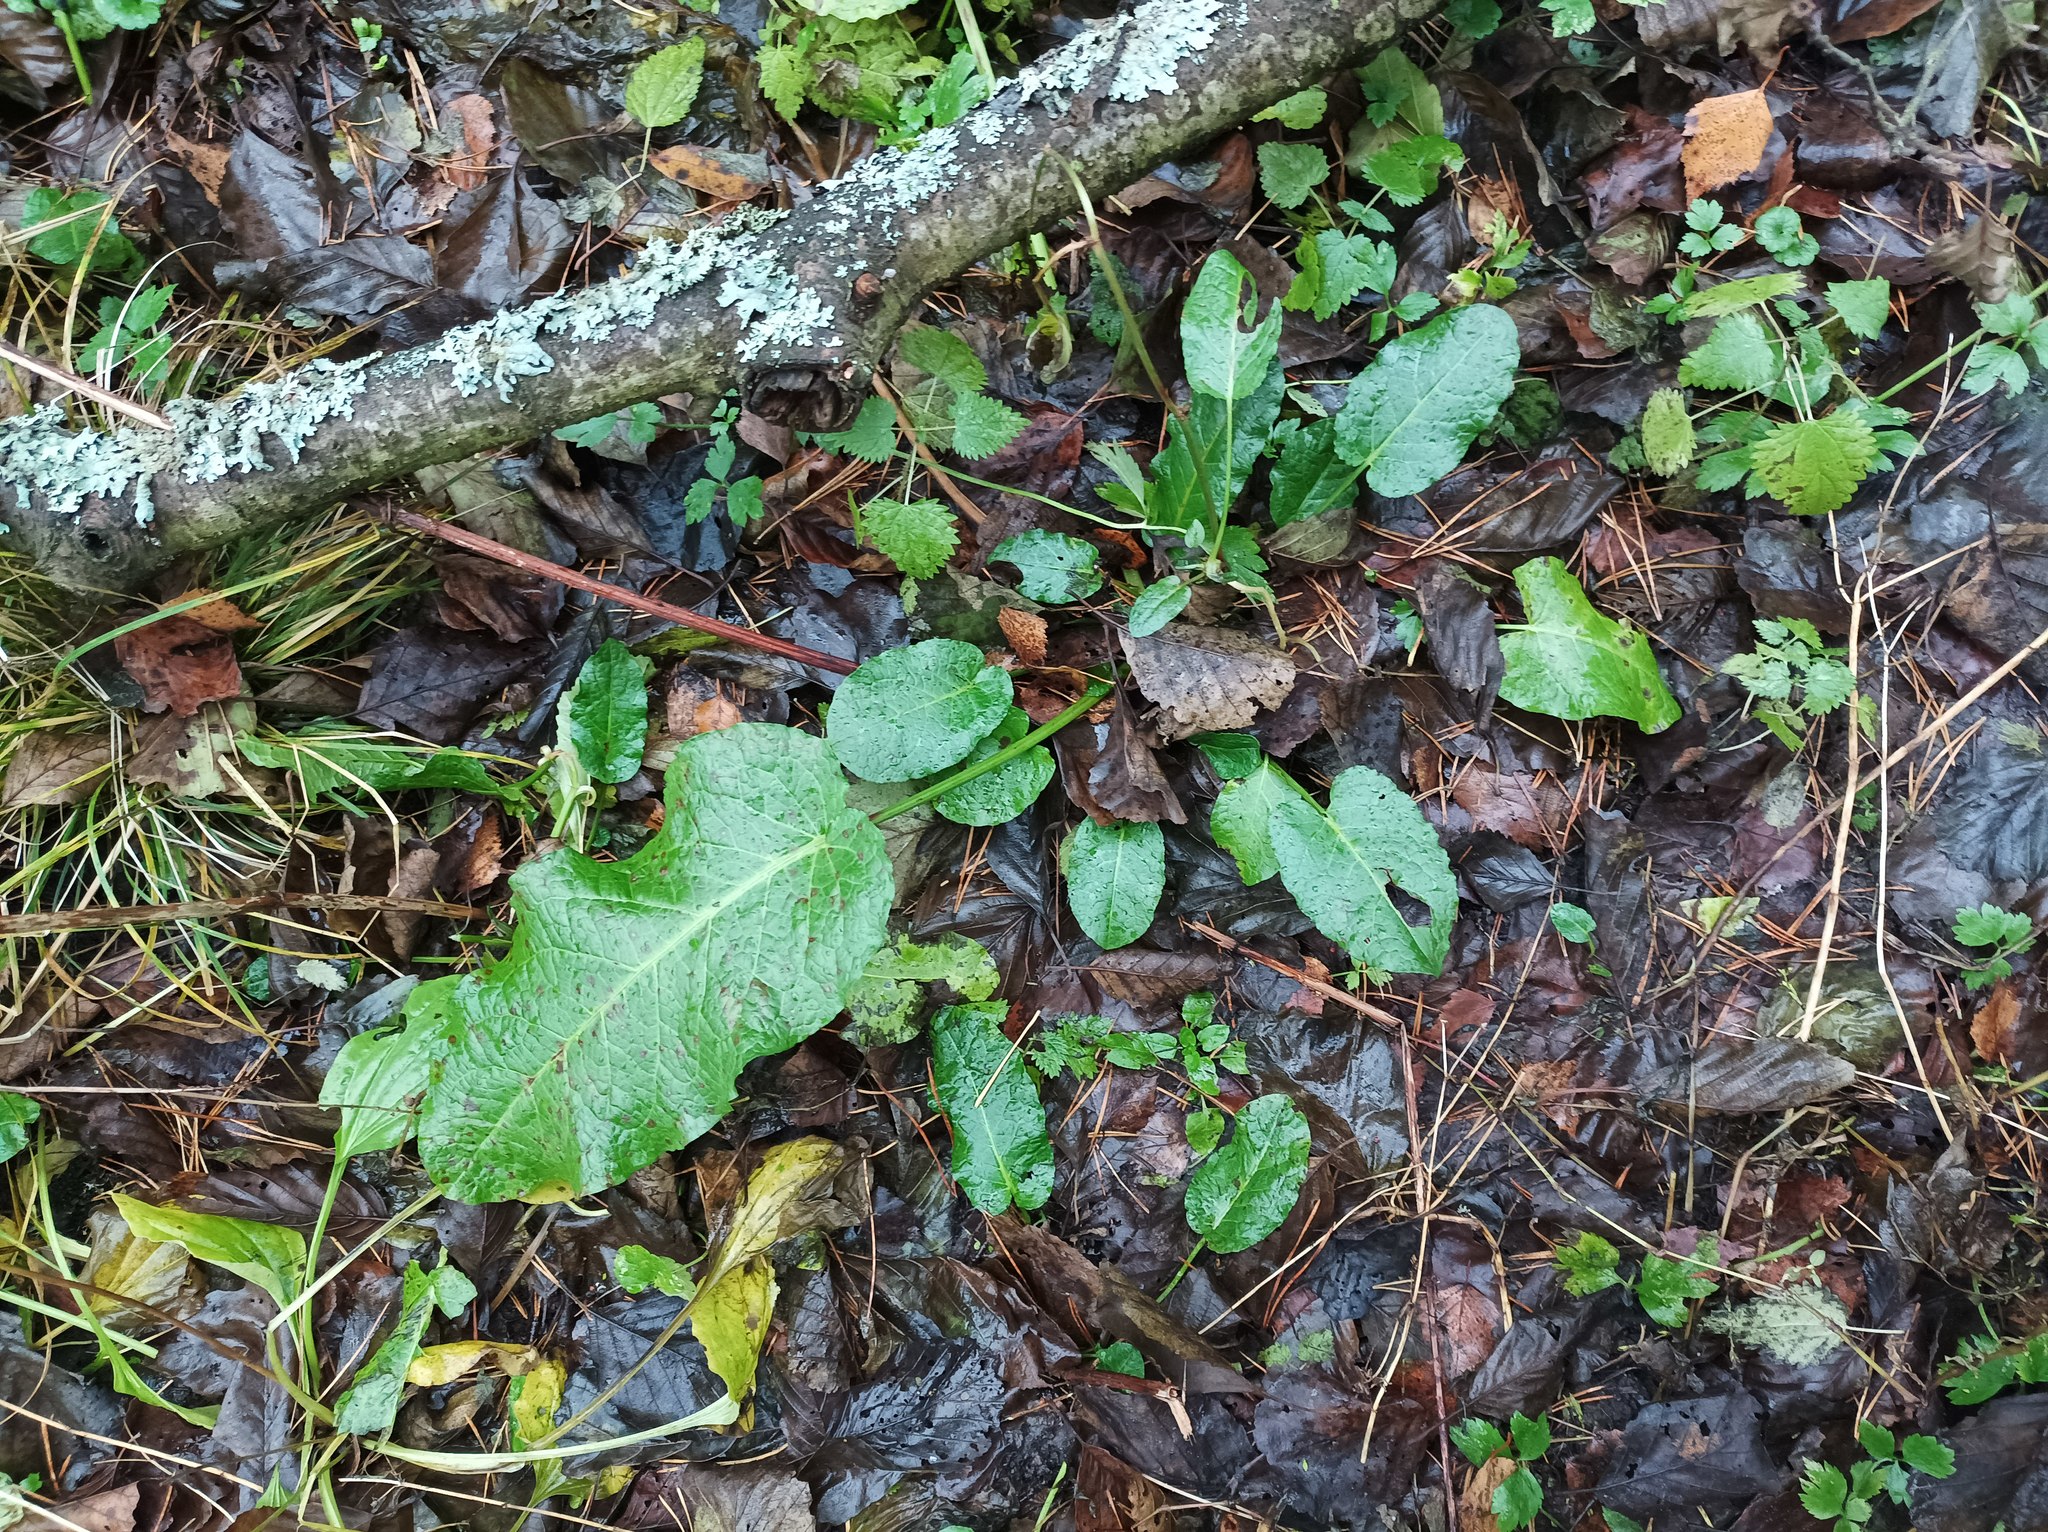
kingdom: Plantae
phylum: Tracheophyta
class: Magnoliopsida
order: Caryophyllales
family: Polygonaceae
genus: Rumex
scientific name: Rumex obtusifolius
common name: Bitter dock
